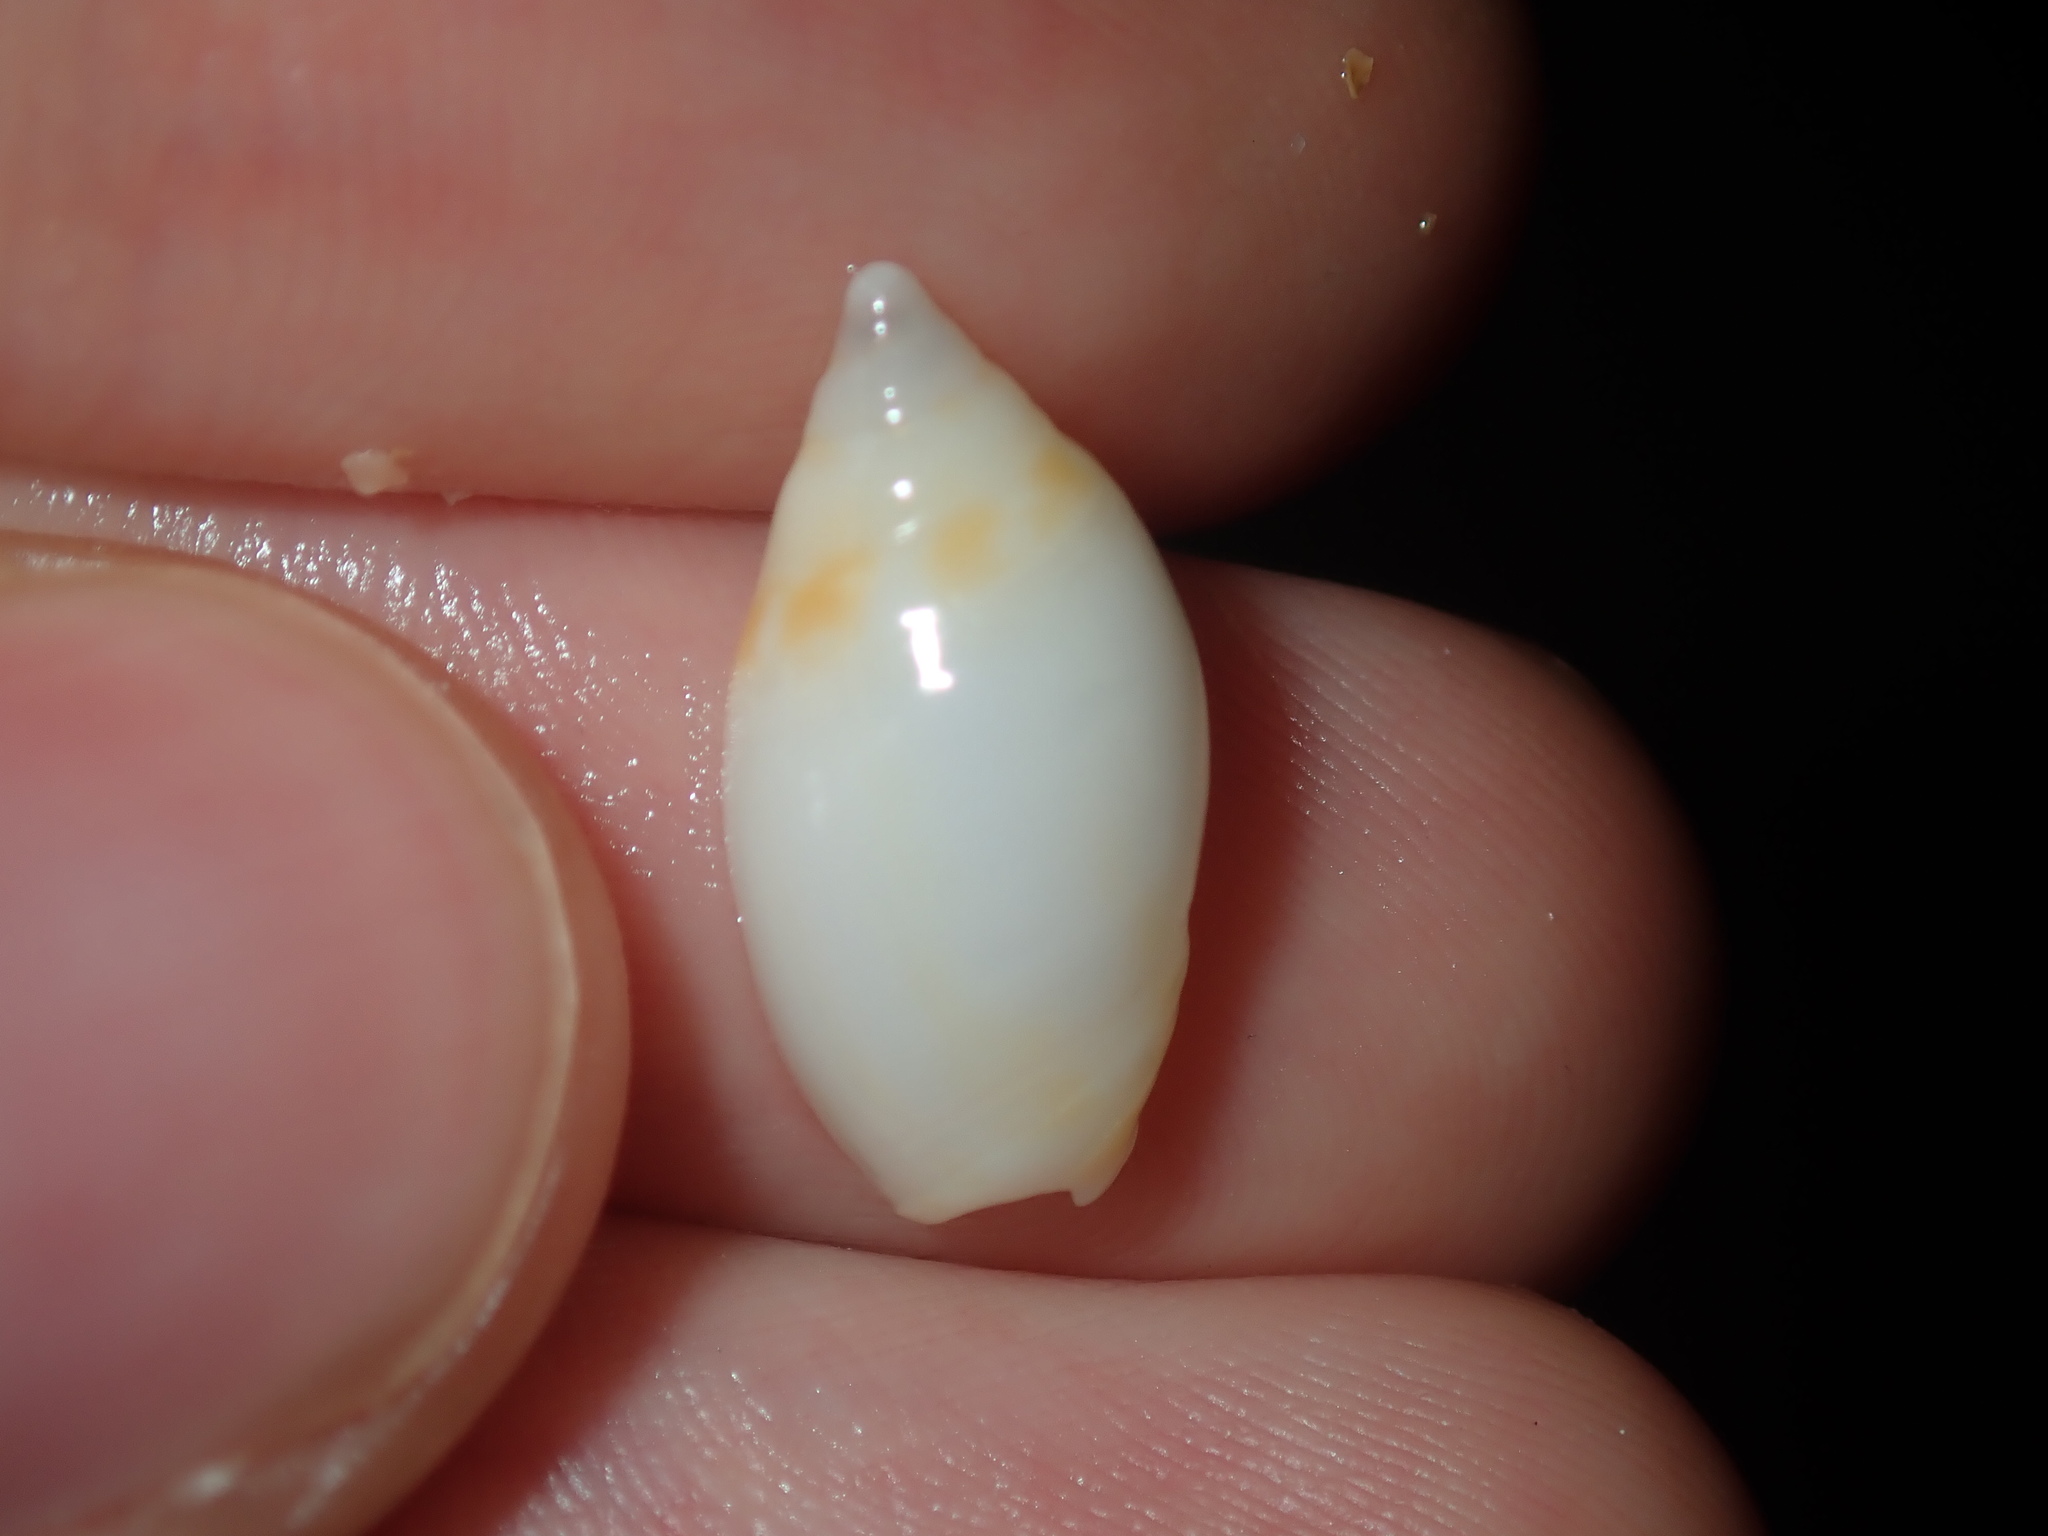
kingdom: Animalia
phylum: Mollusca
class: Gastropoda
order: Neogastropoda
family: Ancillariidae
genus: Amalda
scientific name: Amalda marginata
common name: Margin ancilla
